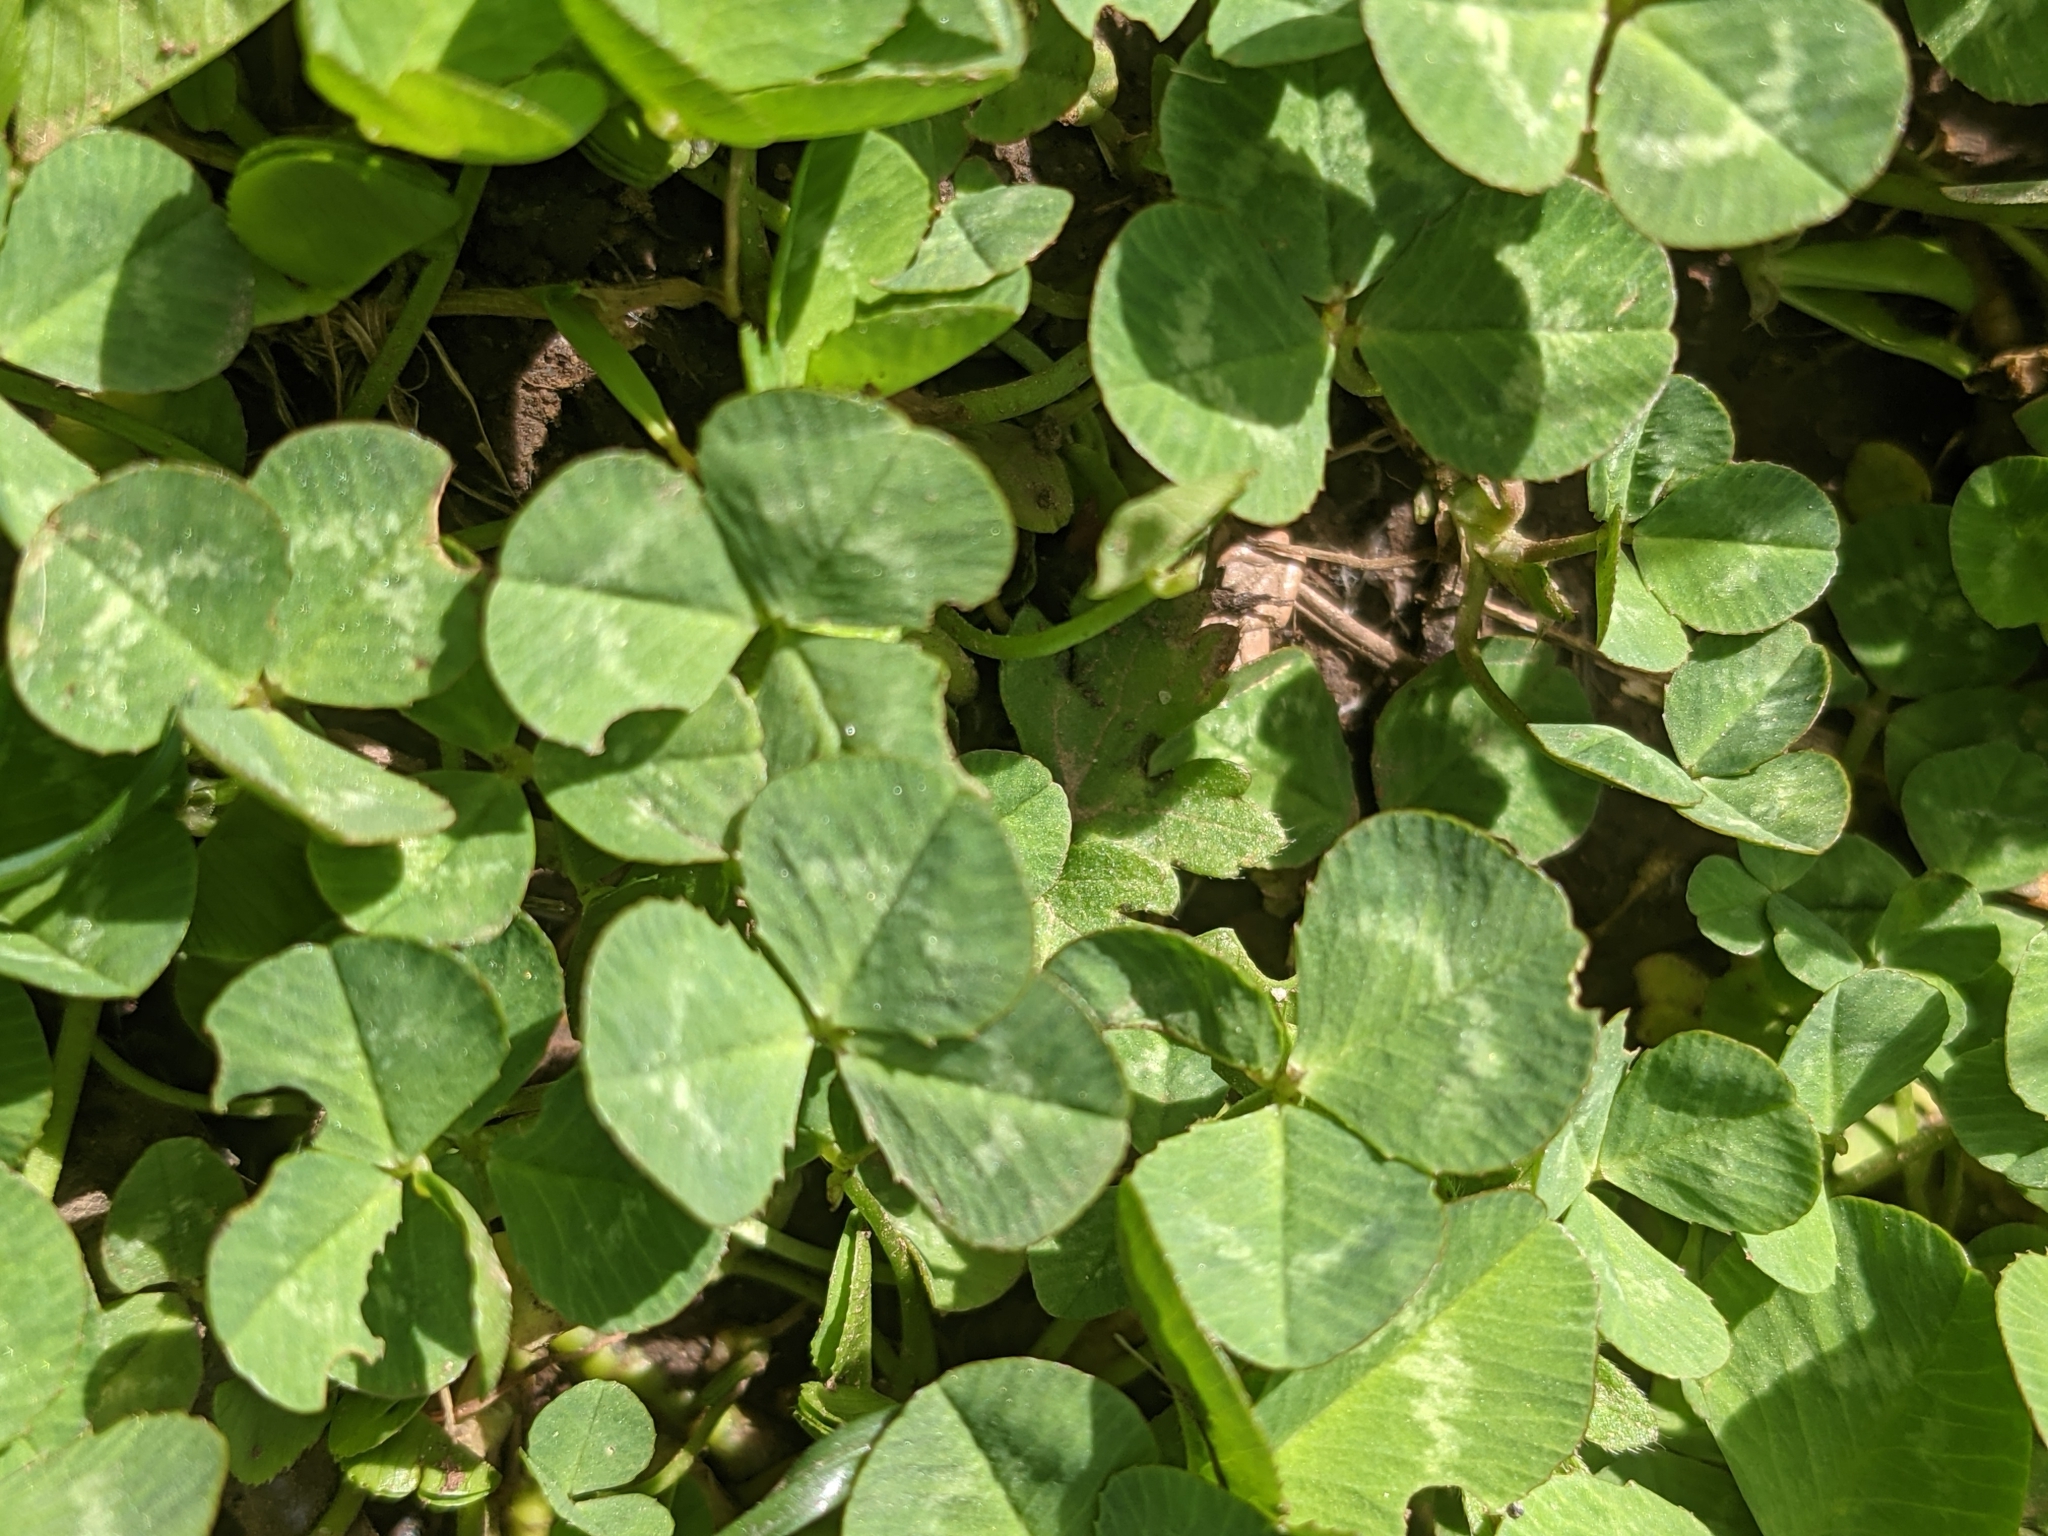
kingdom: Plantae
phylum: Tracheophyta
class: Magnoliopsida
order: Fabales
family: Fabaceae
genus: Trifolium
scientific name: Trifolium repens
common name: White clover
